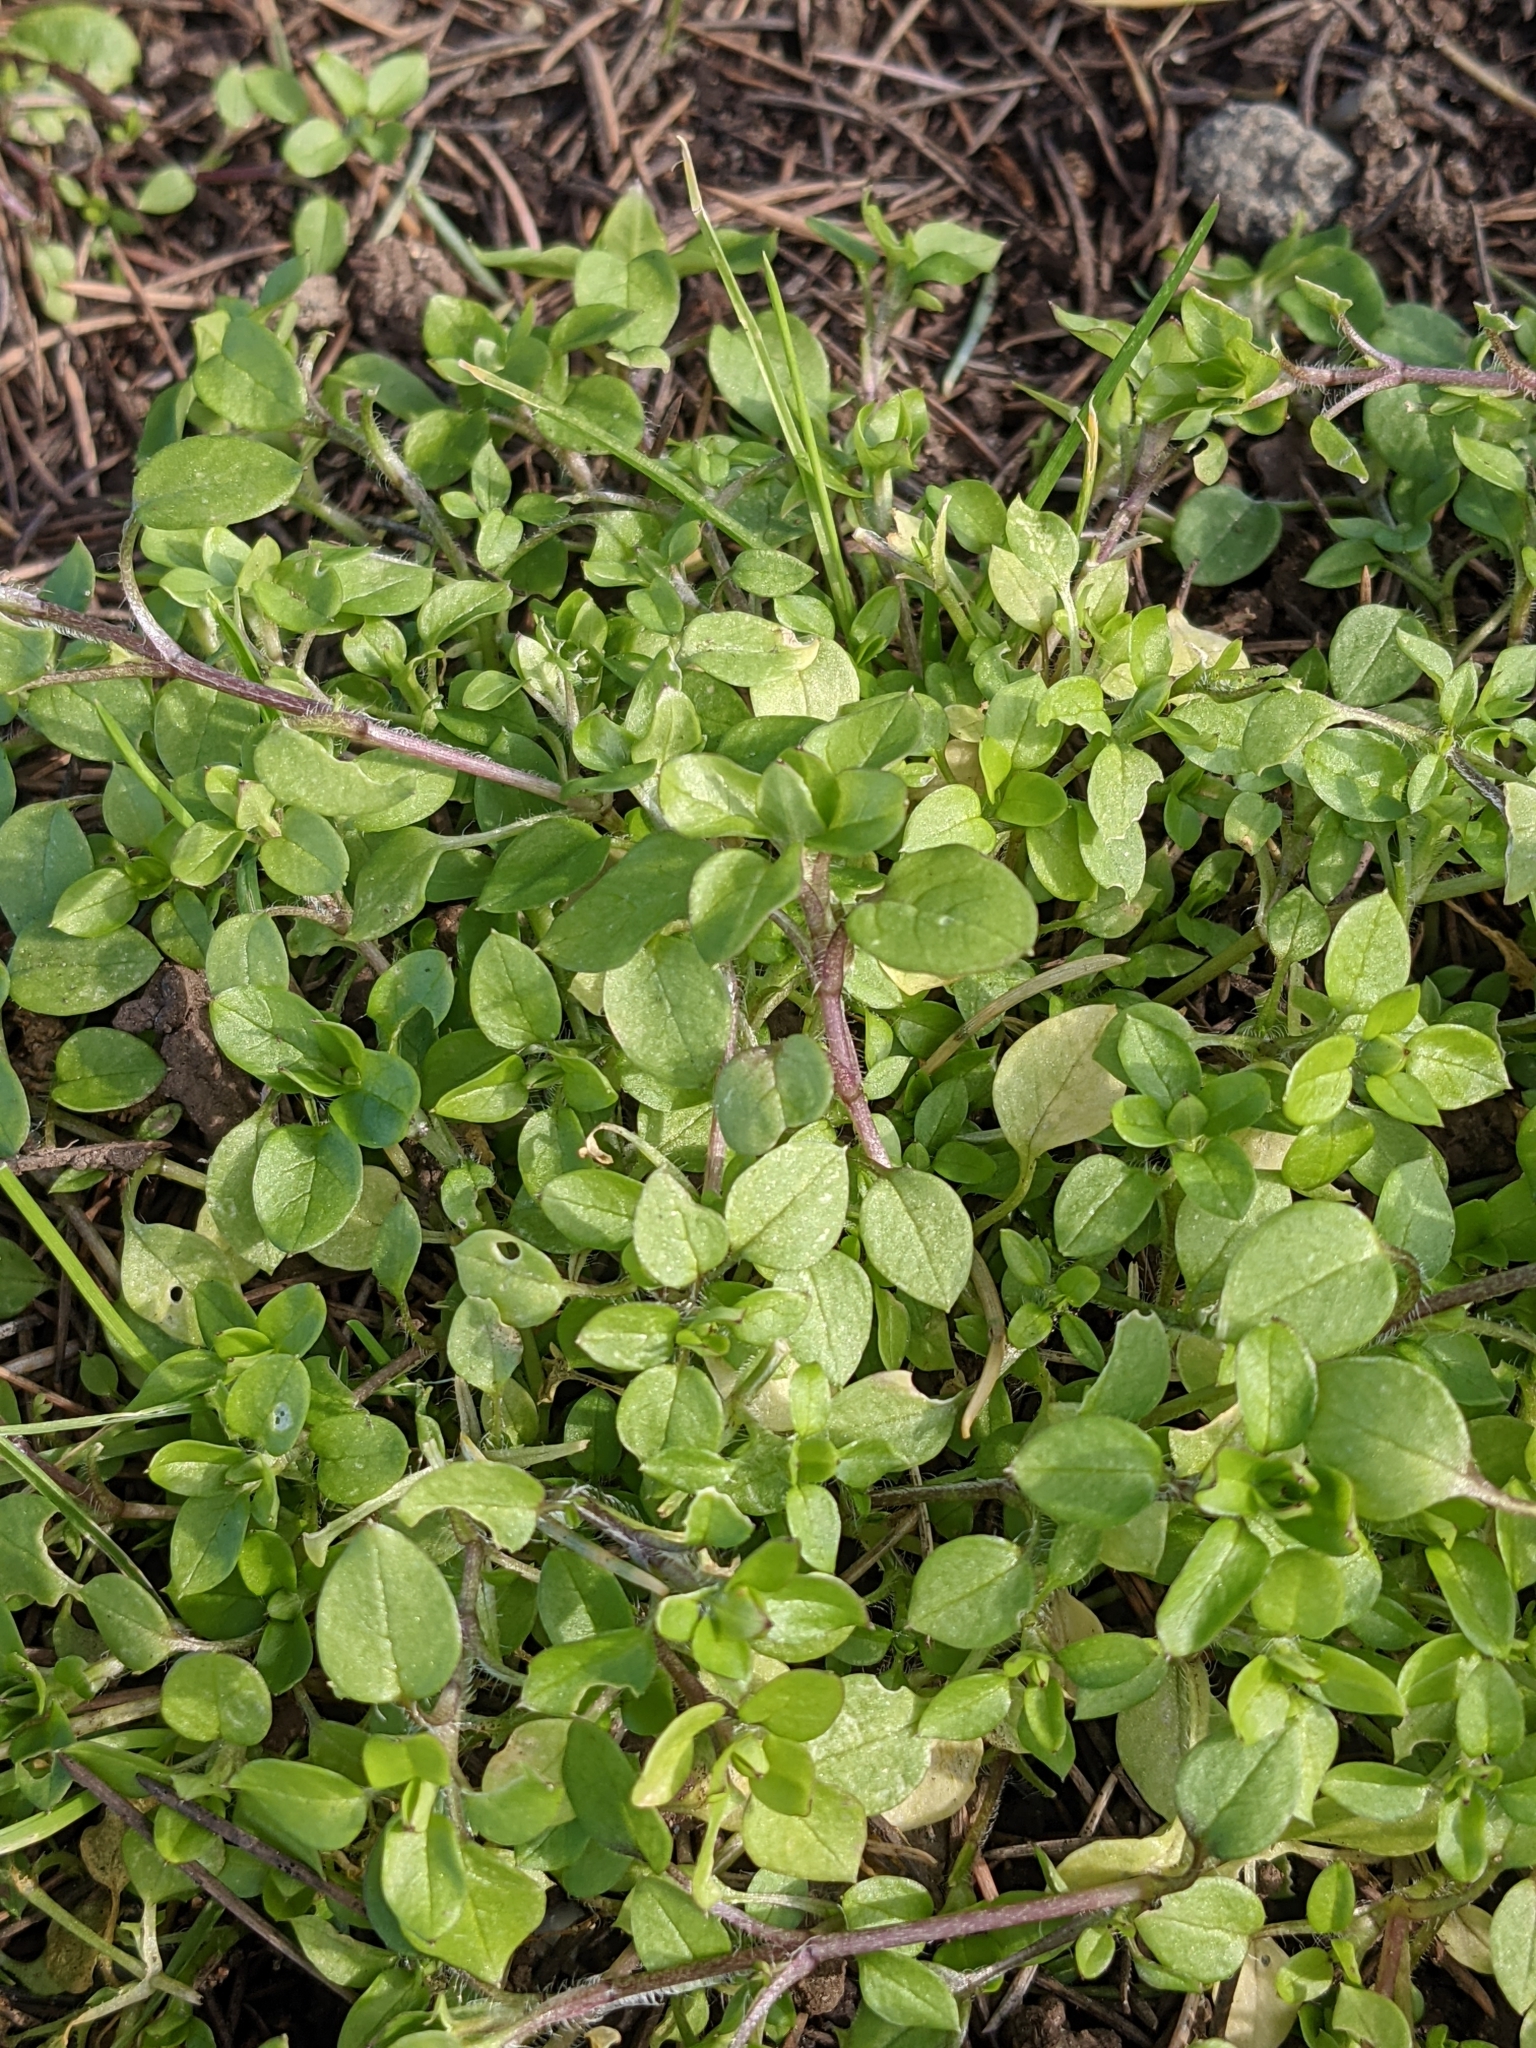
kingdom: Plantae
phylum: Tracheophyta
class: Magnoliopsida
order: Caryophyllales
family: Caryophyllaceae
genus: Stellaria
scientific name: Stellaria media
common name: Common chickweed
